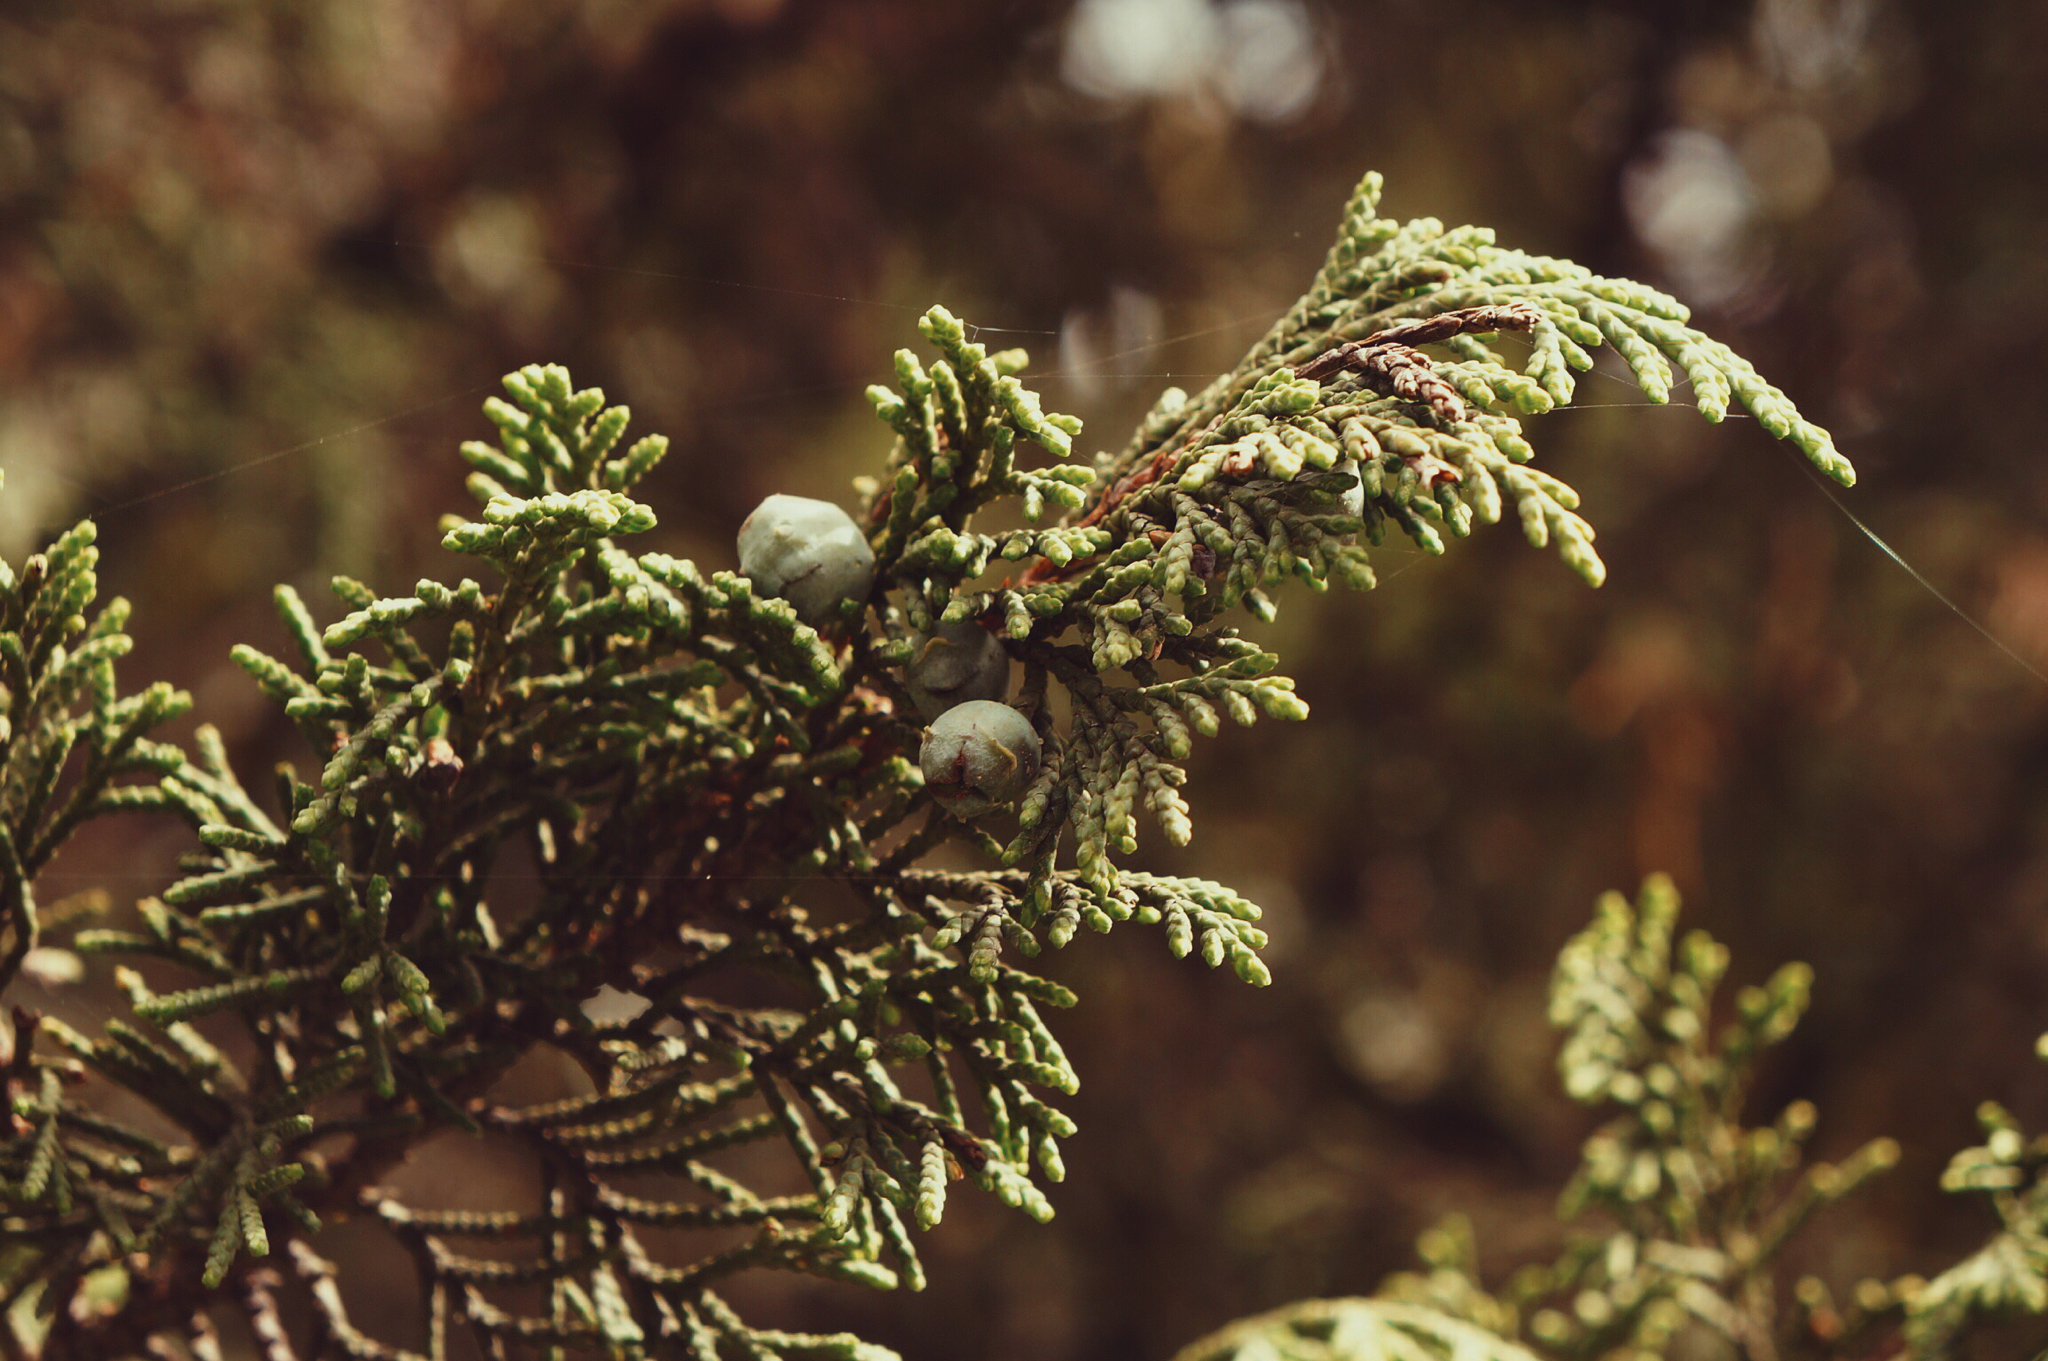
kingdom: Plantae
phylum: Tracheophyta
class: Pinopsida
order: Pinales
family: Cupressaceae
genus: Juniperus
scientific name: Juniperus monticola
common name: Mexican juniper
